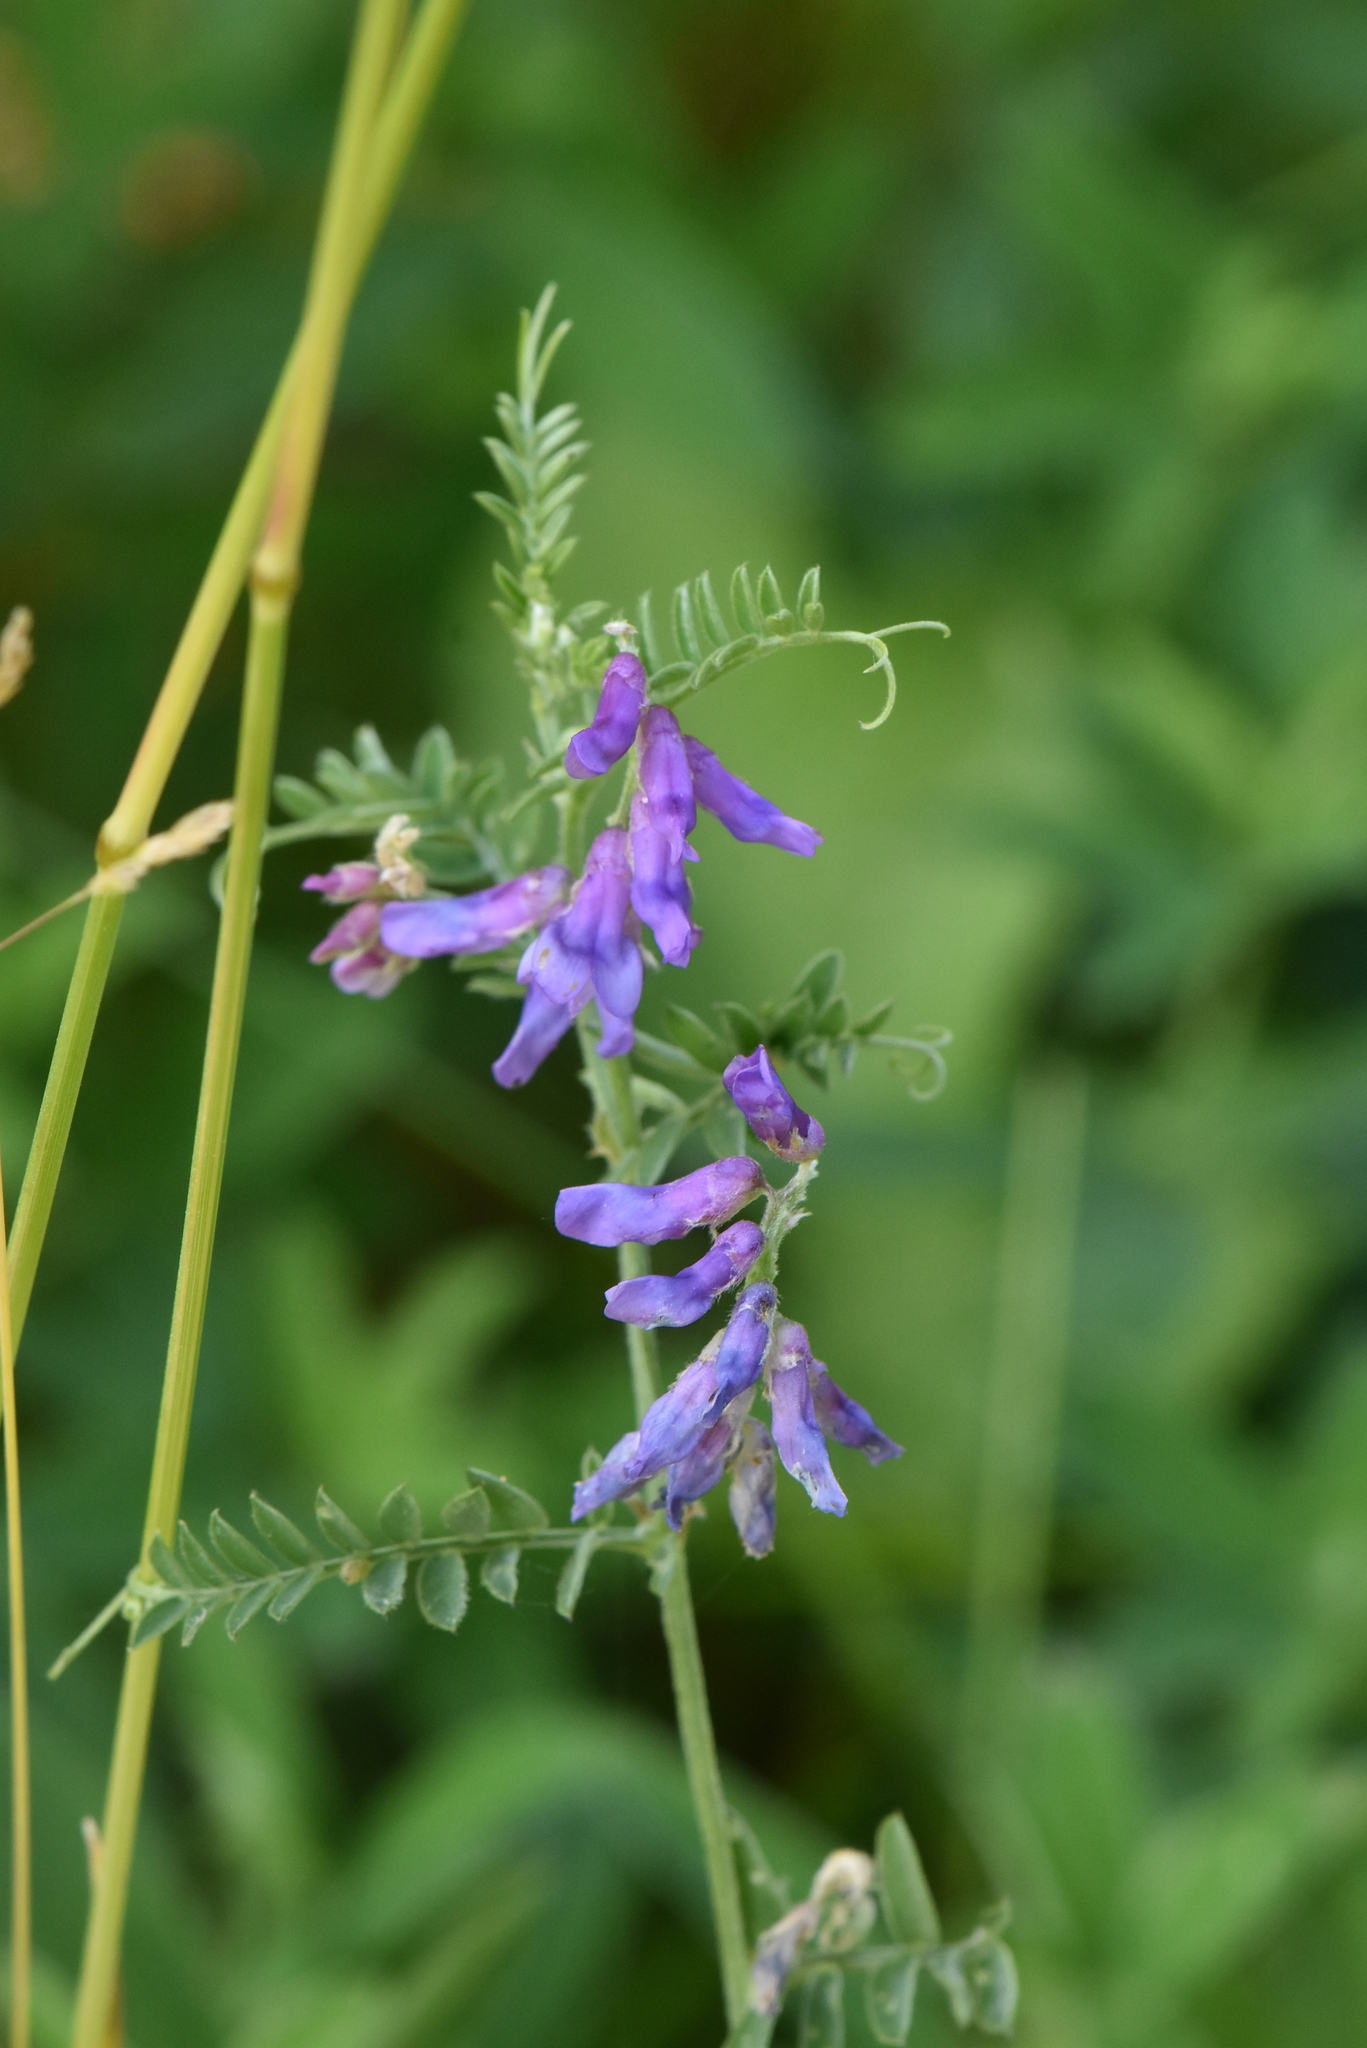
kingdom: Plantae
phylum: Tracheophyta
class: Magnoliopsida
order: Fabales
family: Fabaceae
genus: Vicia
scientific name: Vicia cracca
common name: Bird vetch
